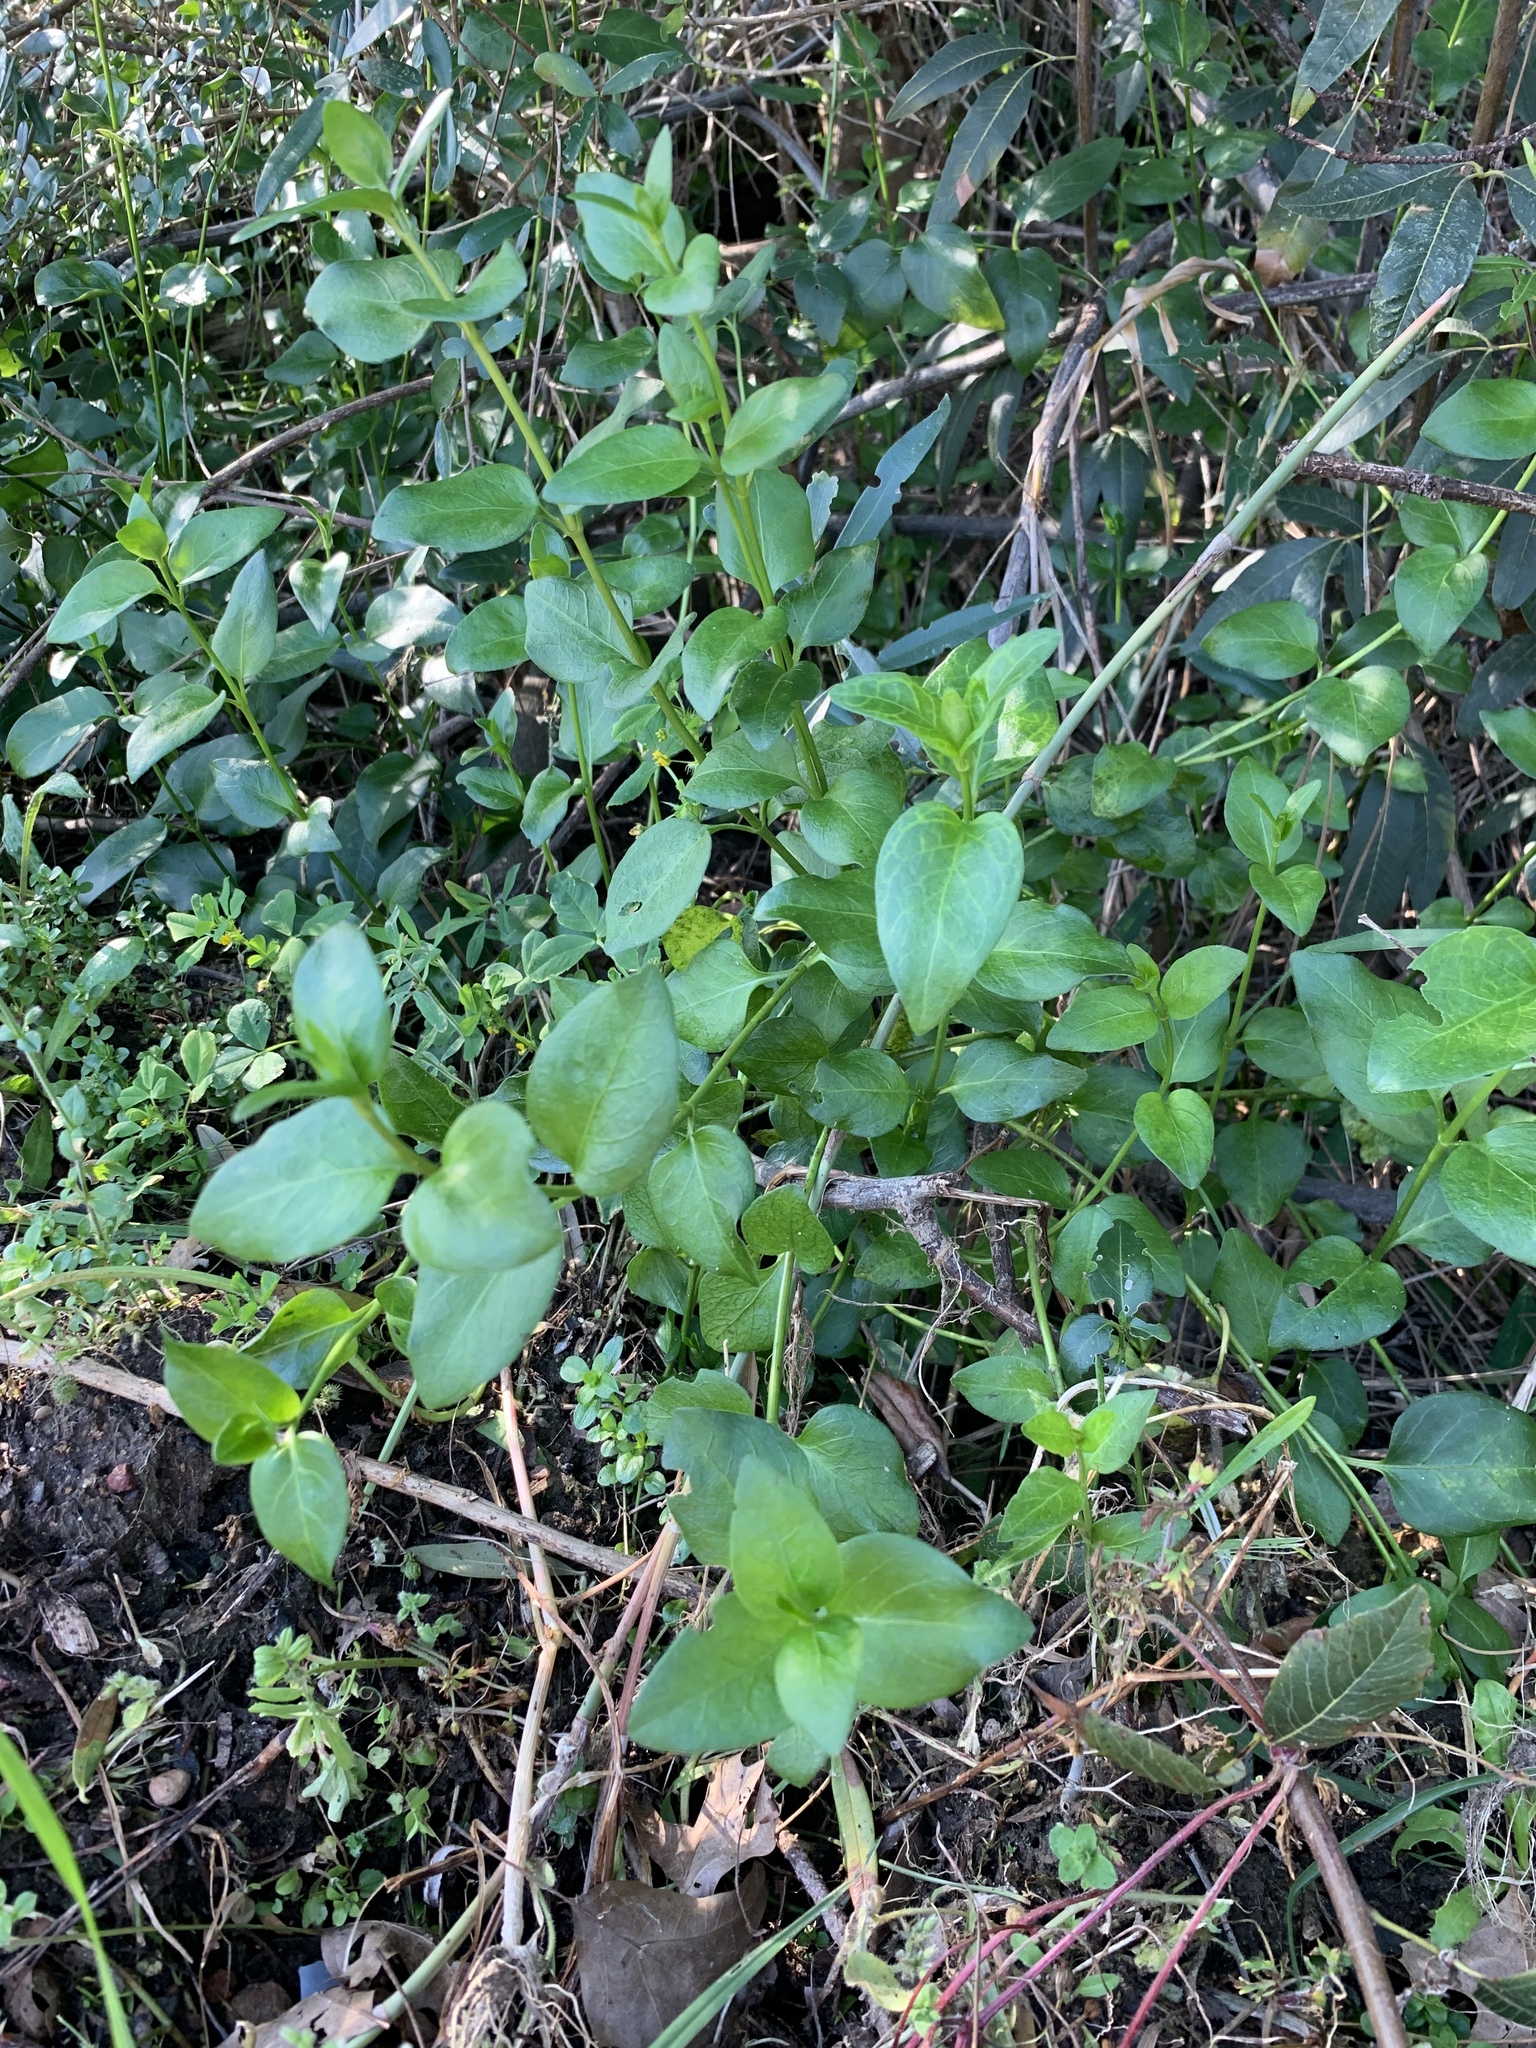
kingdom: Plantae
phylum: Tracheophyta
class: Magnoliopsida
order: Gentianales
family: Apocynaceae
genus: Vinca
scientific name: Vinca major
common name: Greater periwinkle
